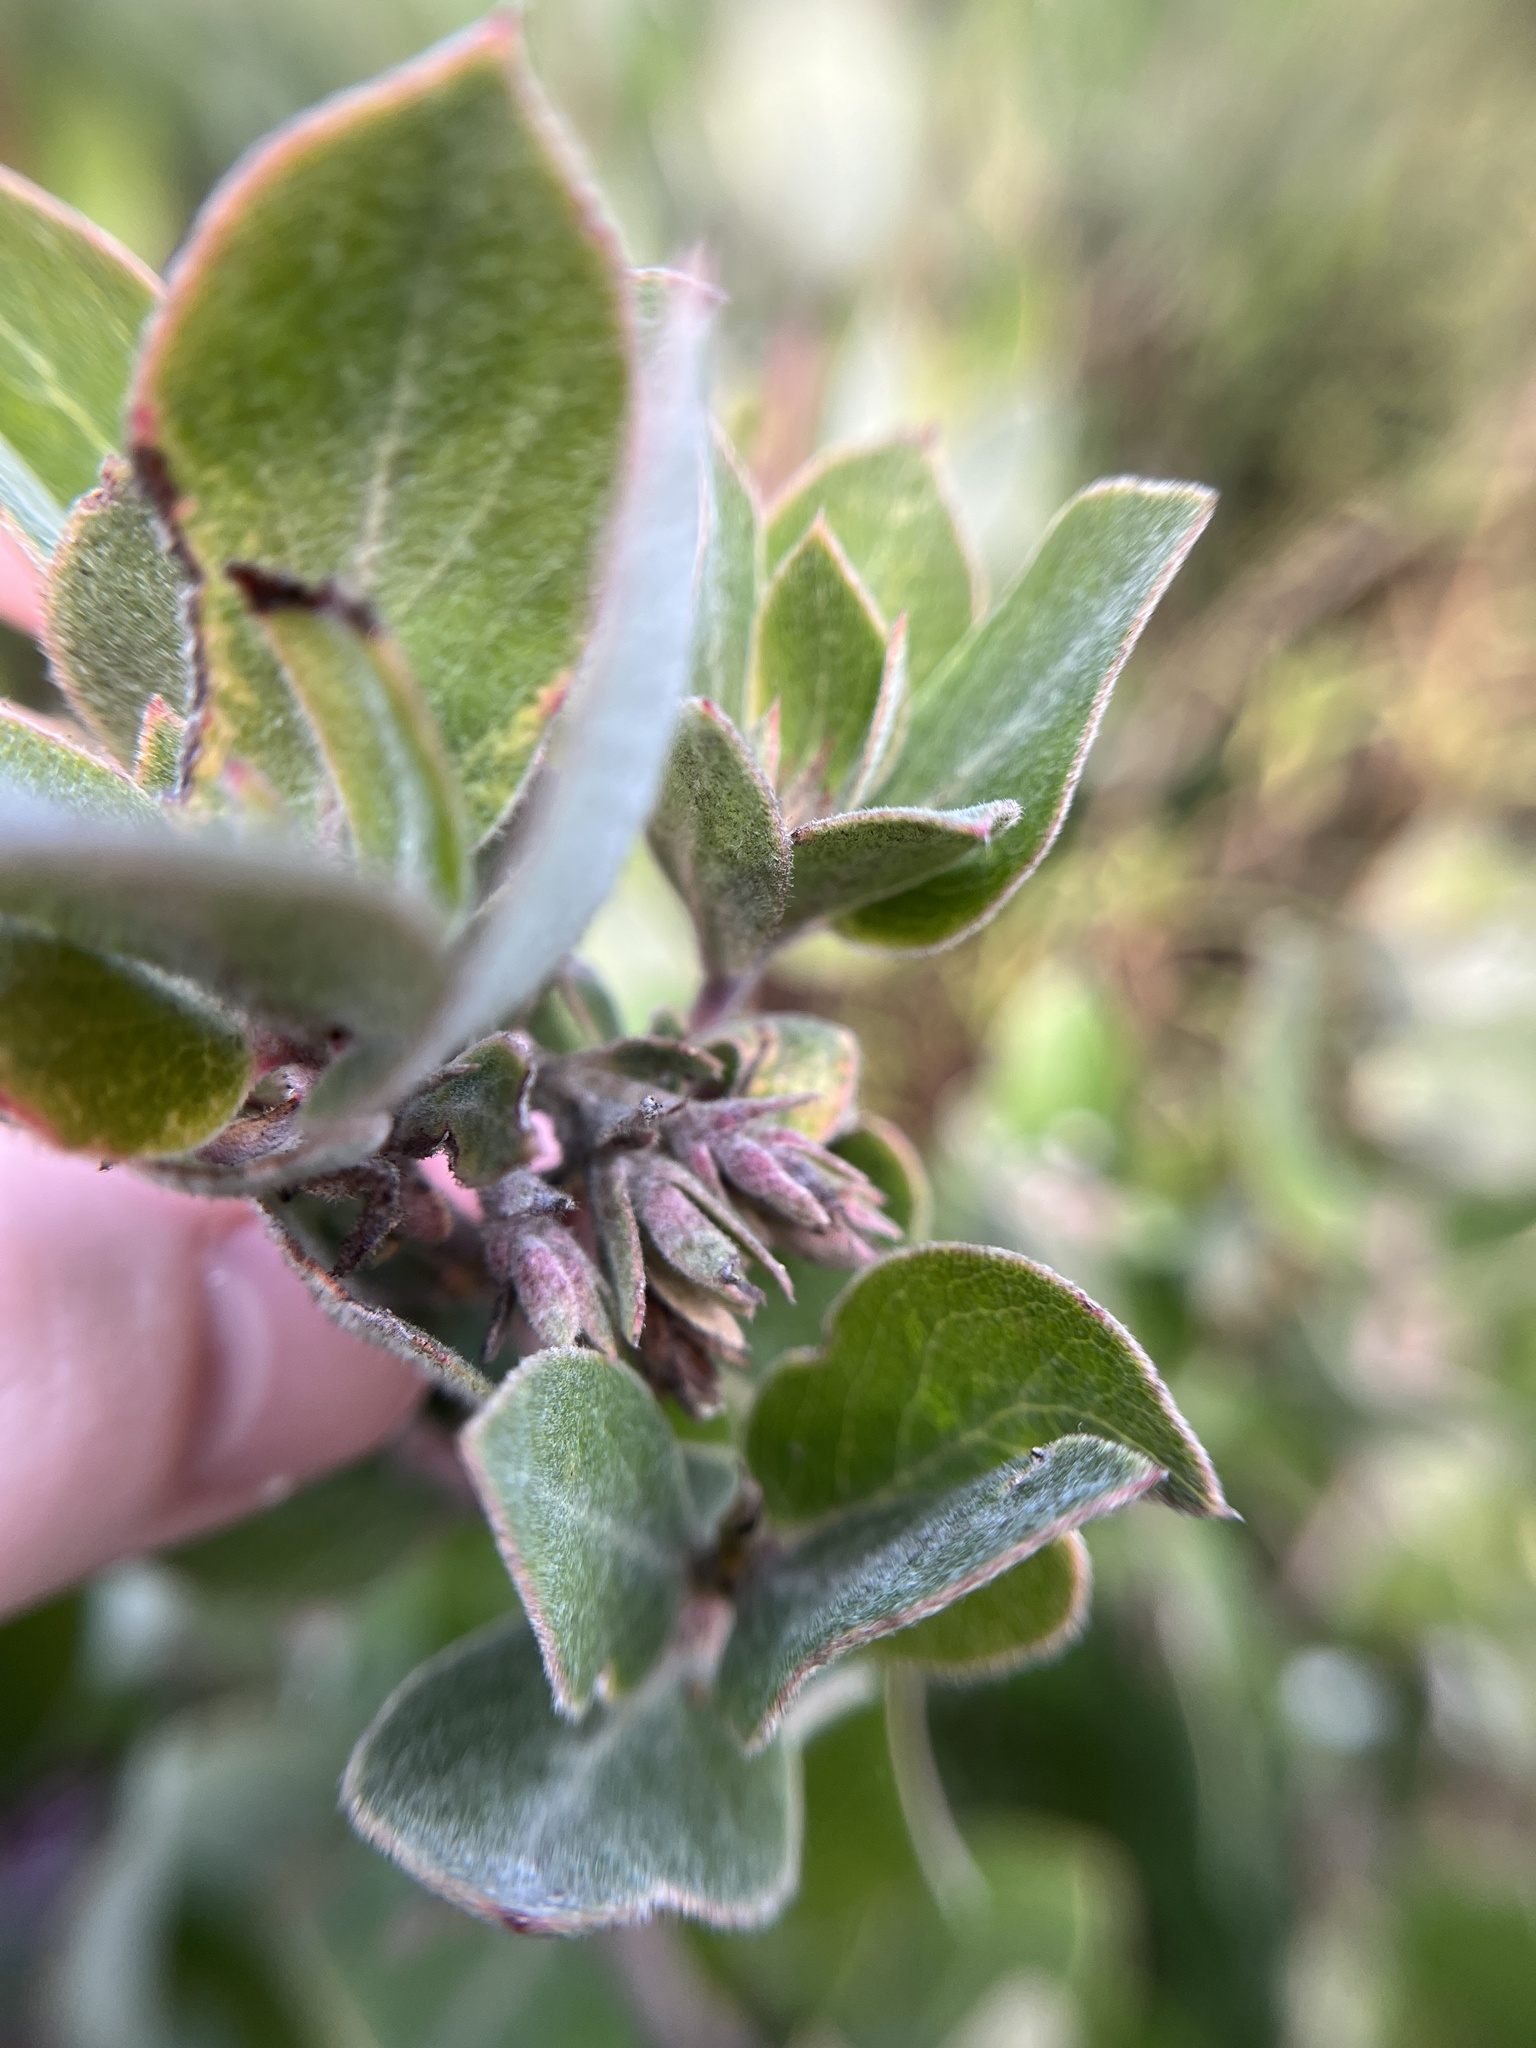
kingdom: Plantae
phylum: Tracheophyta
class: Magnoliopsida
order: Ericales
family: Ericaceae
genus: Arctostaphylos
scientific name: Arctostaphylos tomentosa
